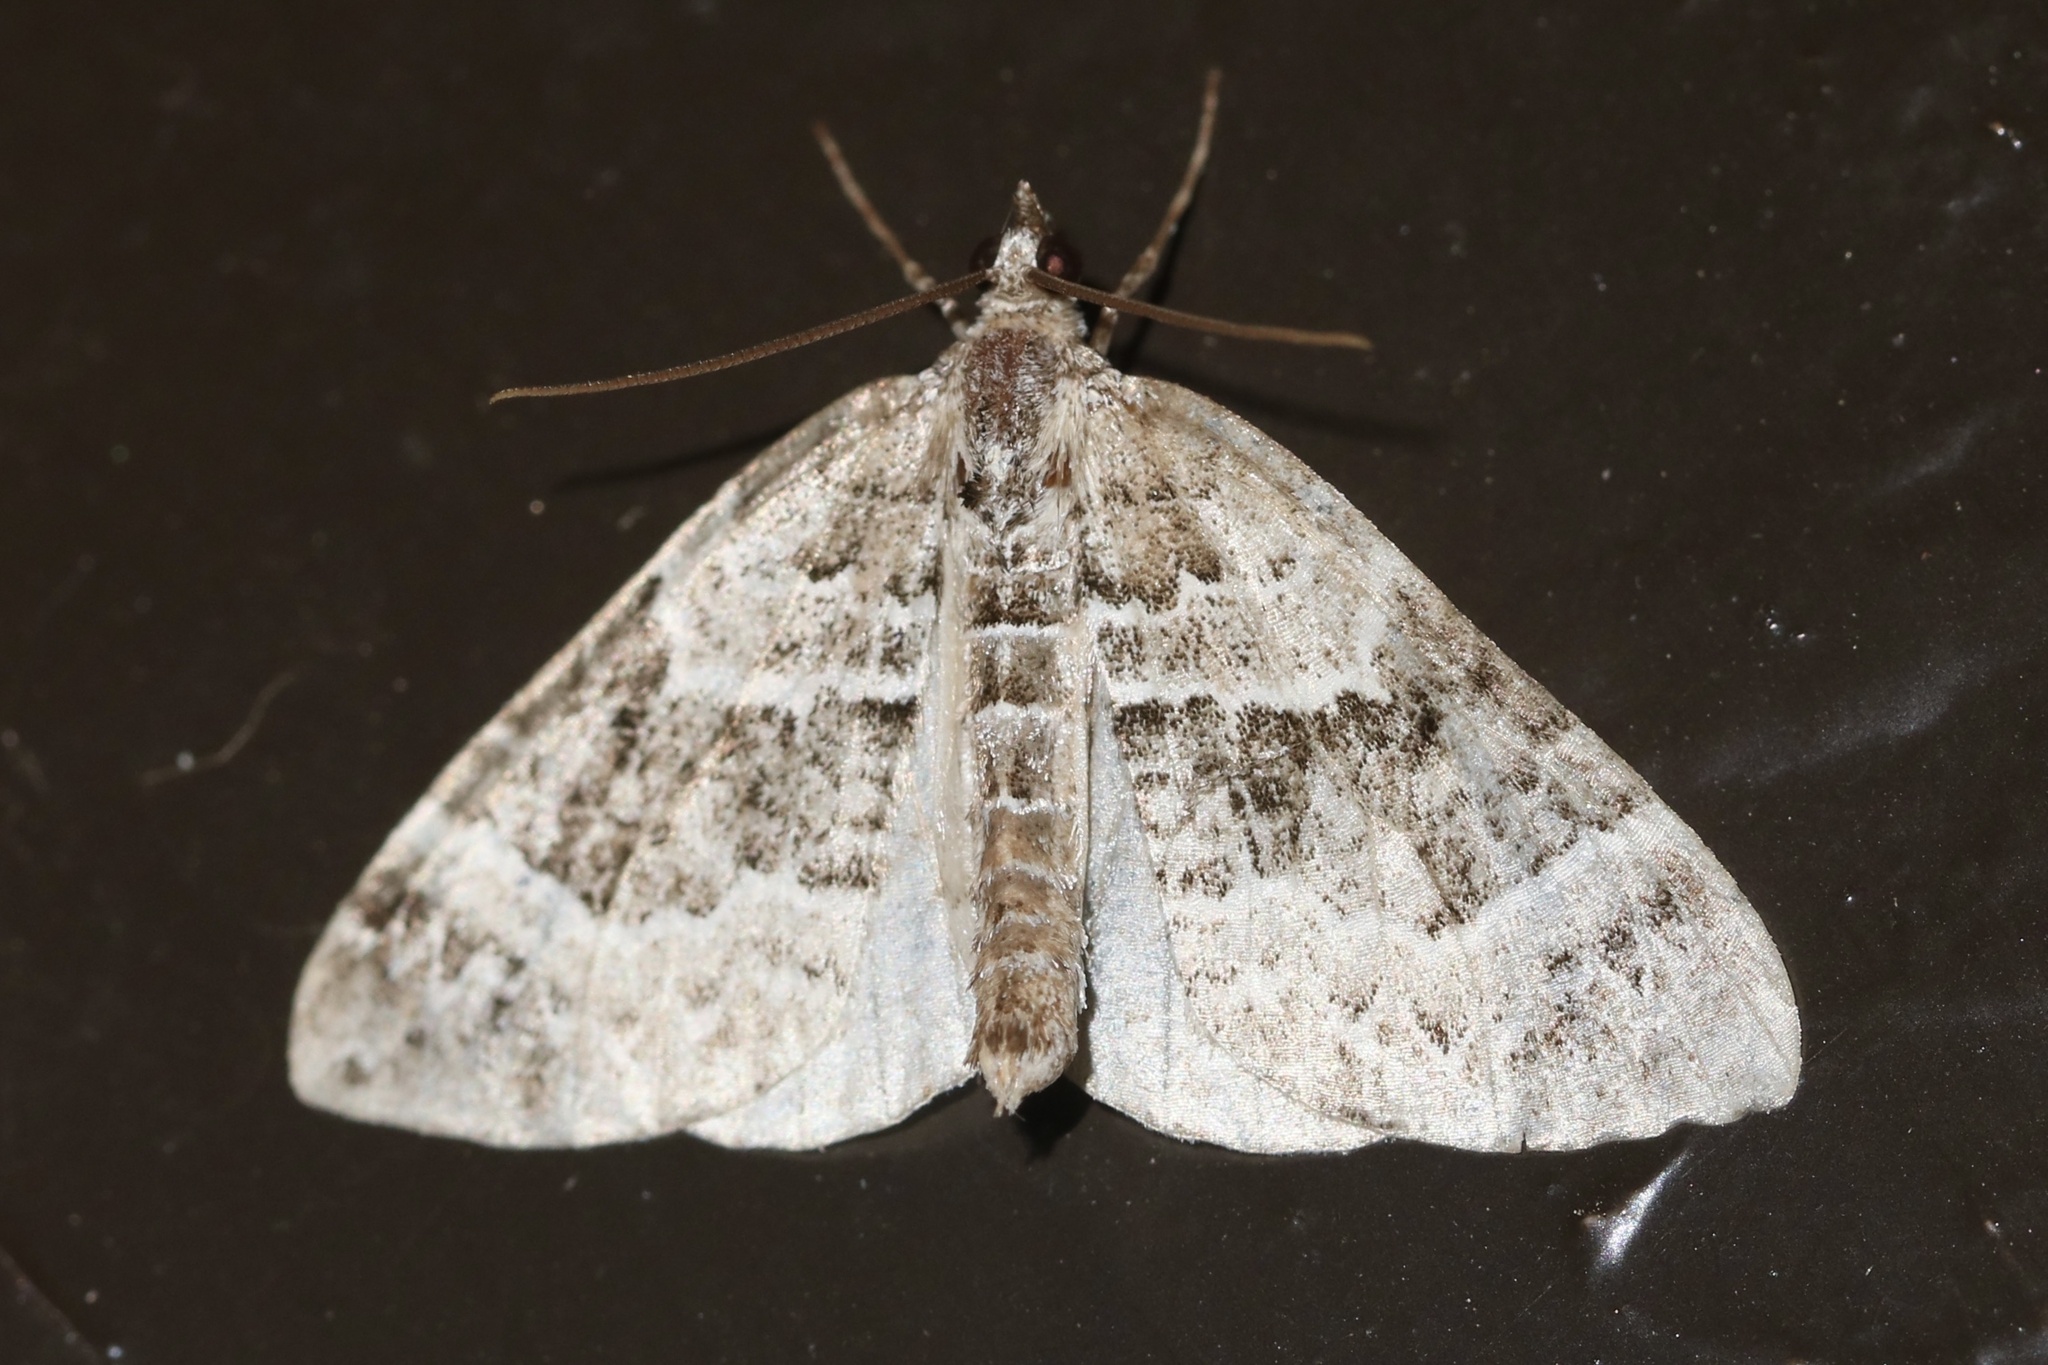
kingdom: Animalia
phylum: Arthropoda
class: Insecta
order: Lepidoptera
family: Geometridae
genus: Eulithis
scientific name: Eulithis explanata
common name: White eulithis
